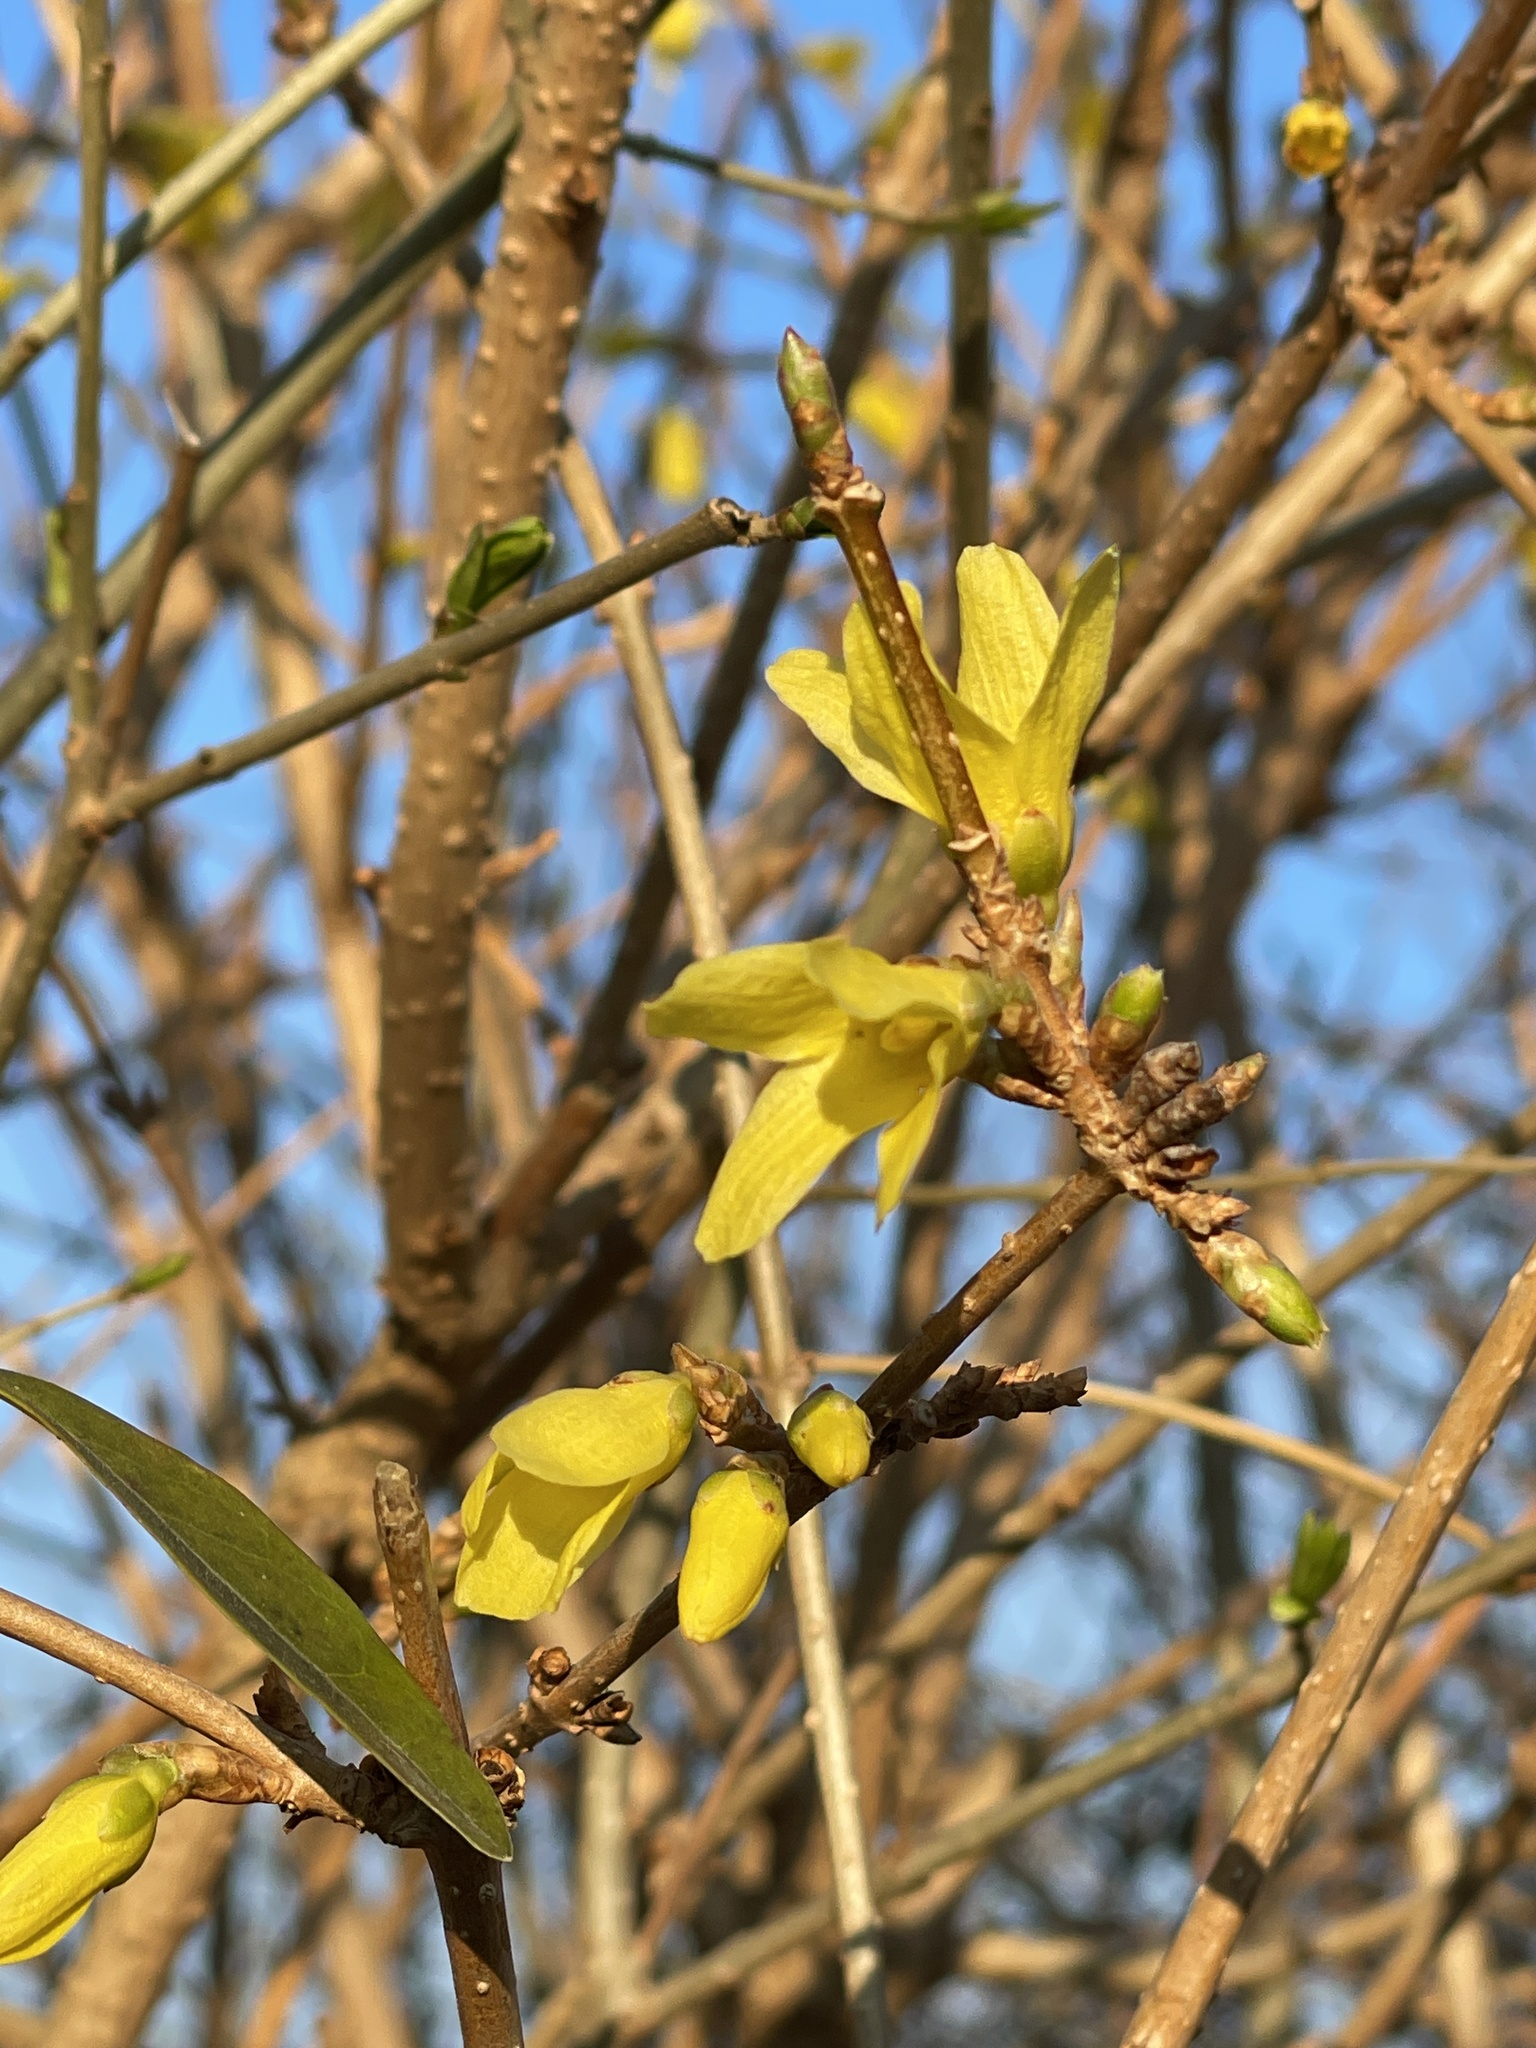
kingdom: Plantae
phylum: Tracheophyta
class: Magnoliopsida
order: Lamiales
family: Oleaceae
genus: Forsythia
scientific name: Forsythia intermedia
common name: Forsythia
